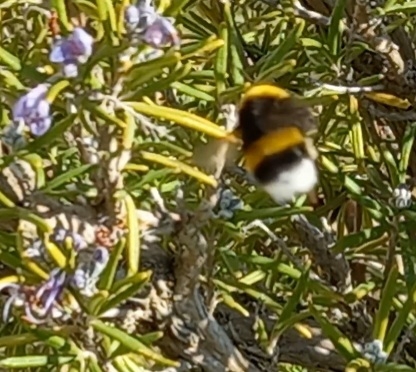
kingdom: Animalia
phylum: Arthropoda
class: Insecta
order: Hymenoptera
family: Apidae
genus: Bombus
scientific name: Bombus terrestris
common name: Buff-tailed bumblebee
